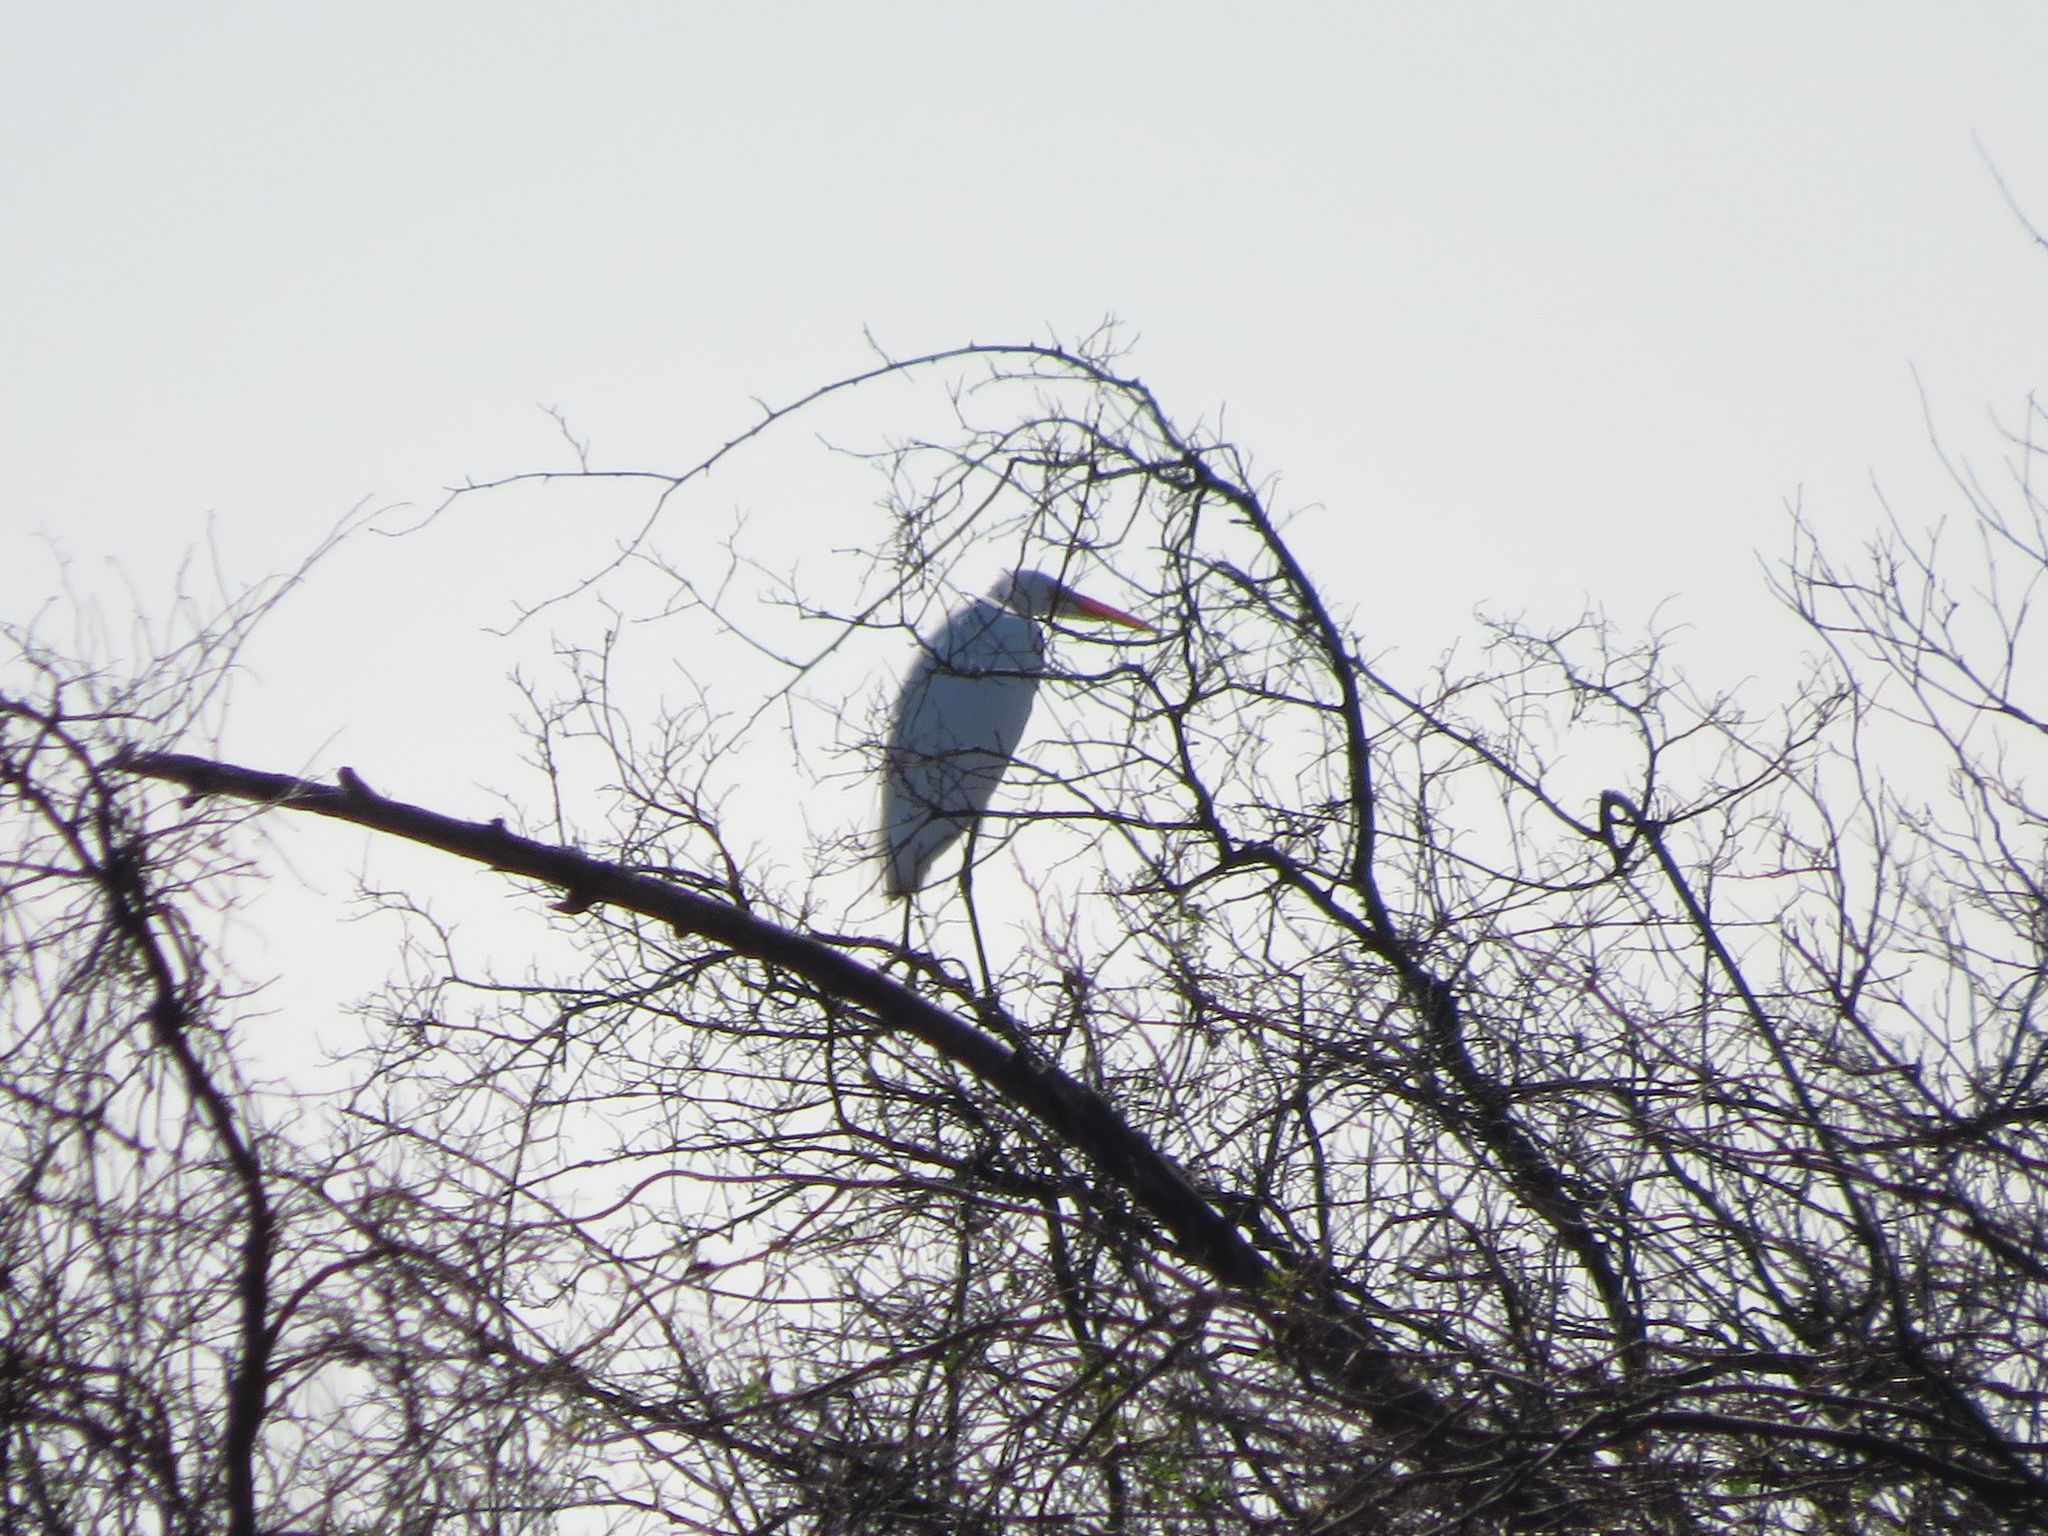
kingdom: Animalia
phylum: Chordata
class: Aves
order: Pelecaniformes
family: Ardeidae
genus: Ardea
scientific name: Ardea alba
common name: Great egret
